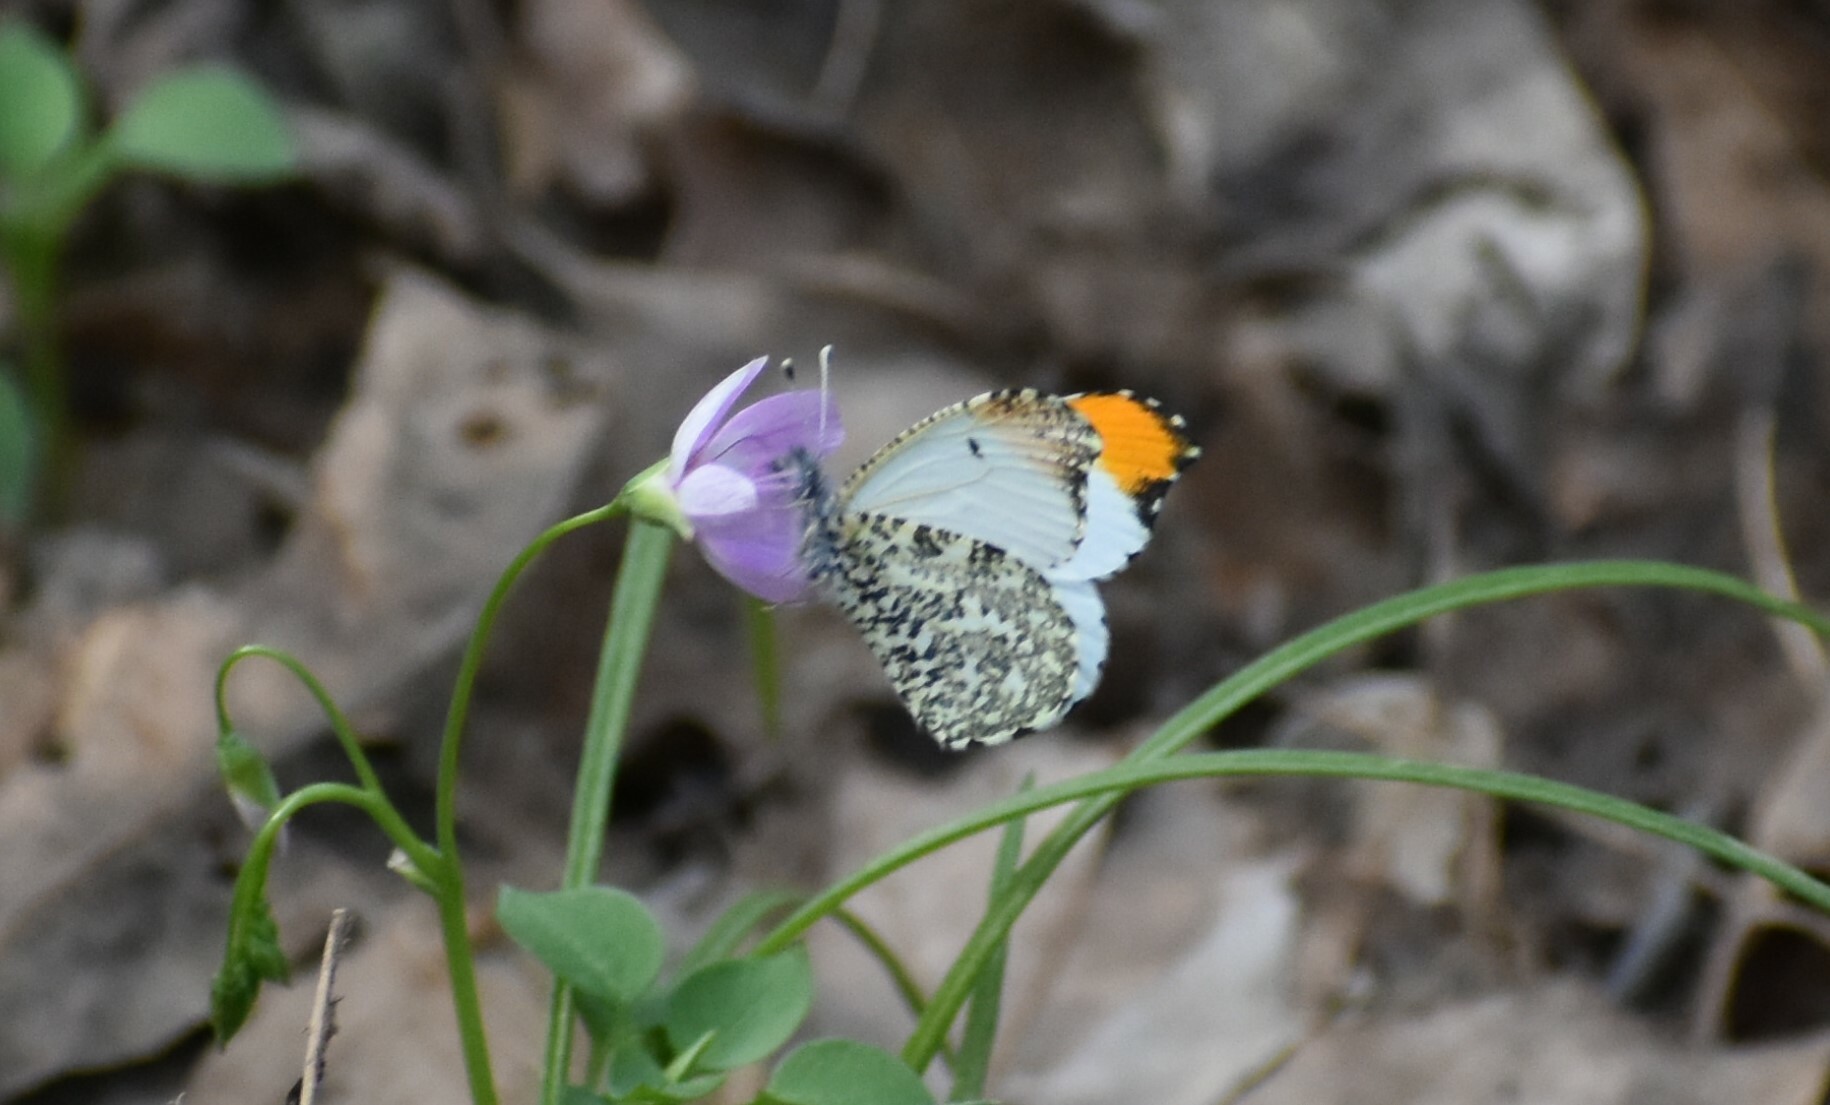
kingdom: Animalia
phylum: Arthropoda
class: Insecta
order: Lepidoptera
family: Pieridae
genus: Anthocharis
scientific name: Anthocharis midea
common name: Falcate orangetip
